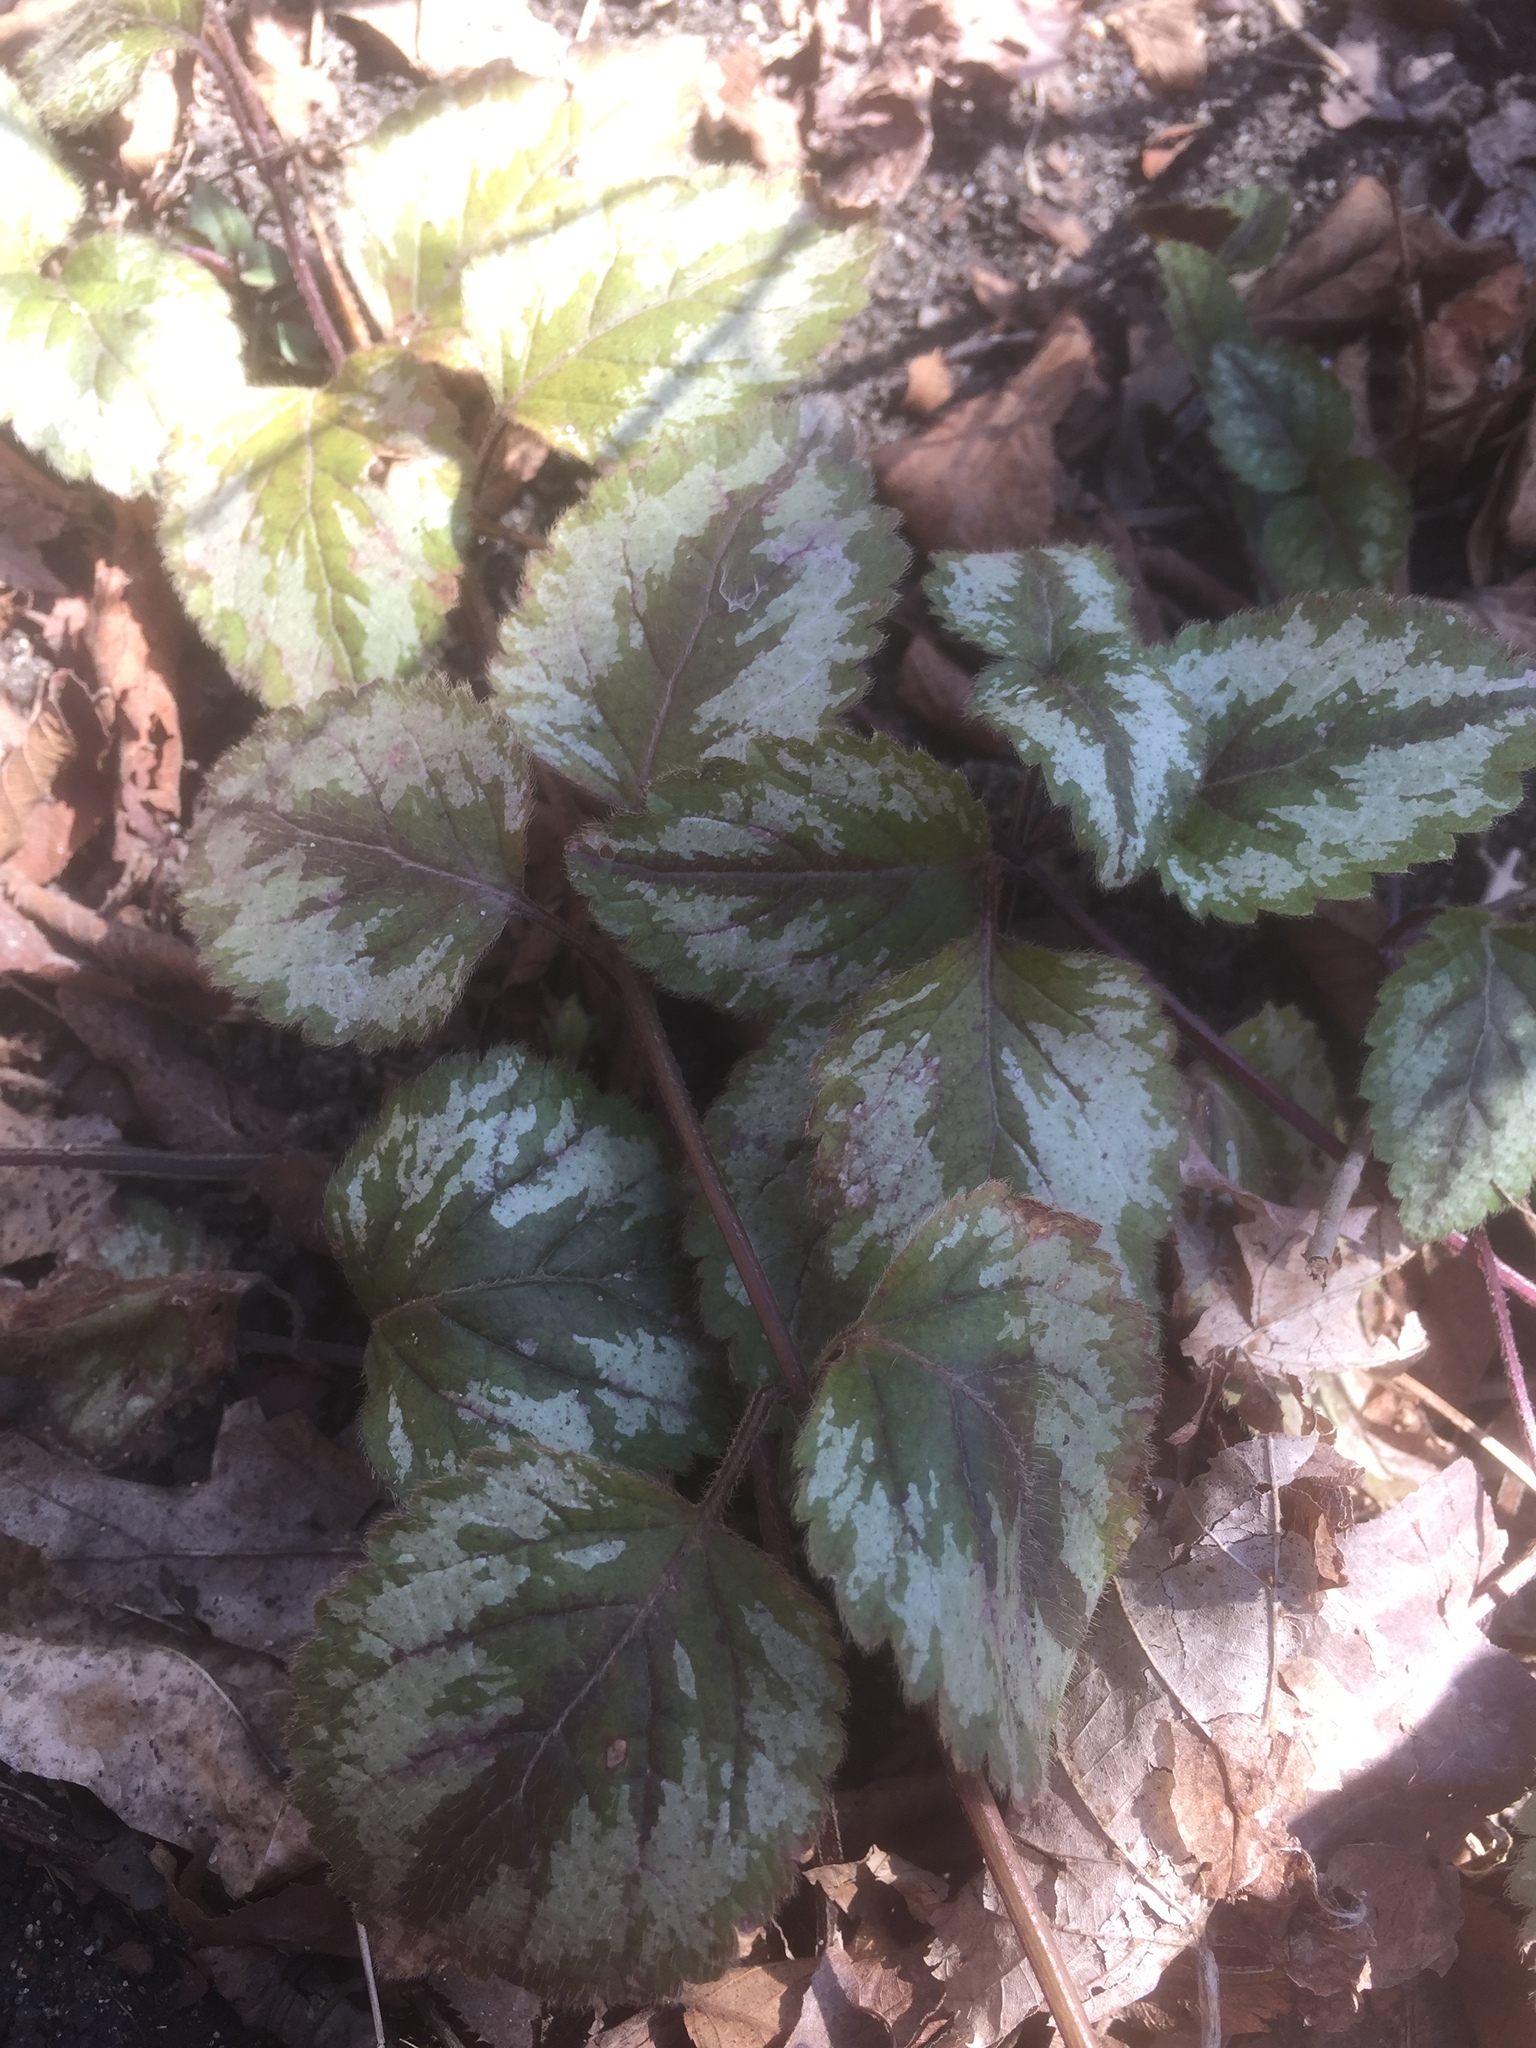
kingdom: Plantae
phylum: Tracheophyta
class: Magnoliopsida
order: Lamiales
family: Lamiaceae
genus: Lamium
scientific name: Lamium galeobdolon
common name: Yellow archangel
